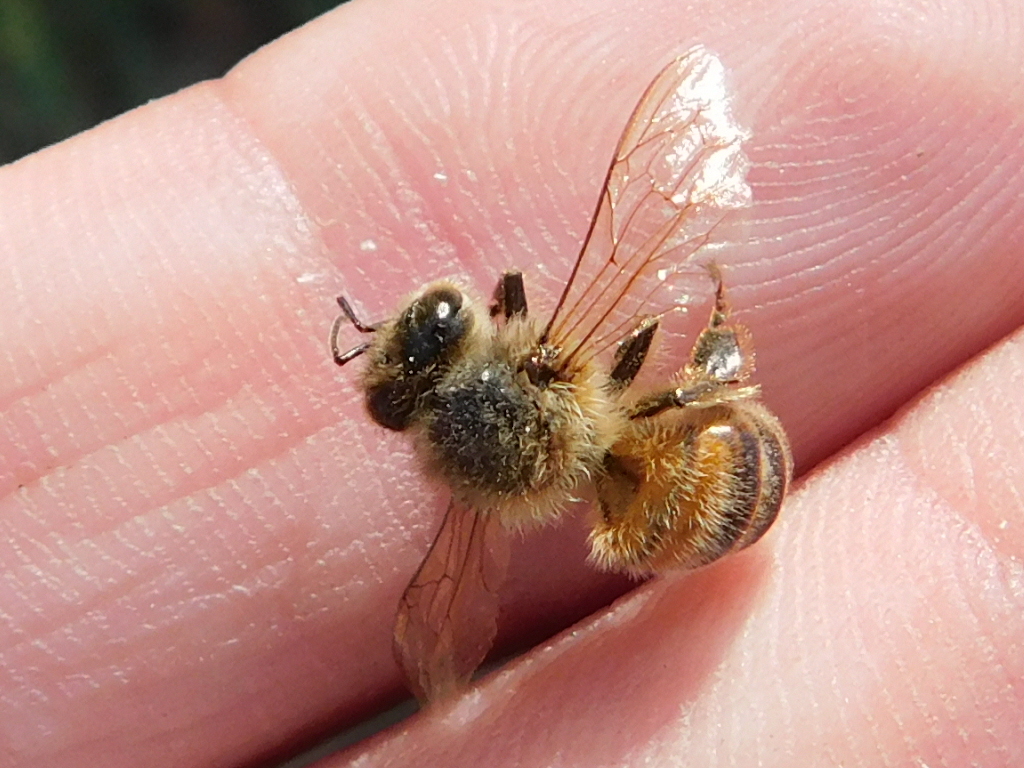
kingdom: Animalia
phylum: Arthropoda
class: Insecta
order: Hymenoptera
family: Apidae
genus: Apis
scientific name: Apis mellifera
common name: Honey bee
